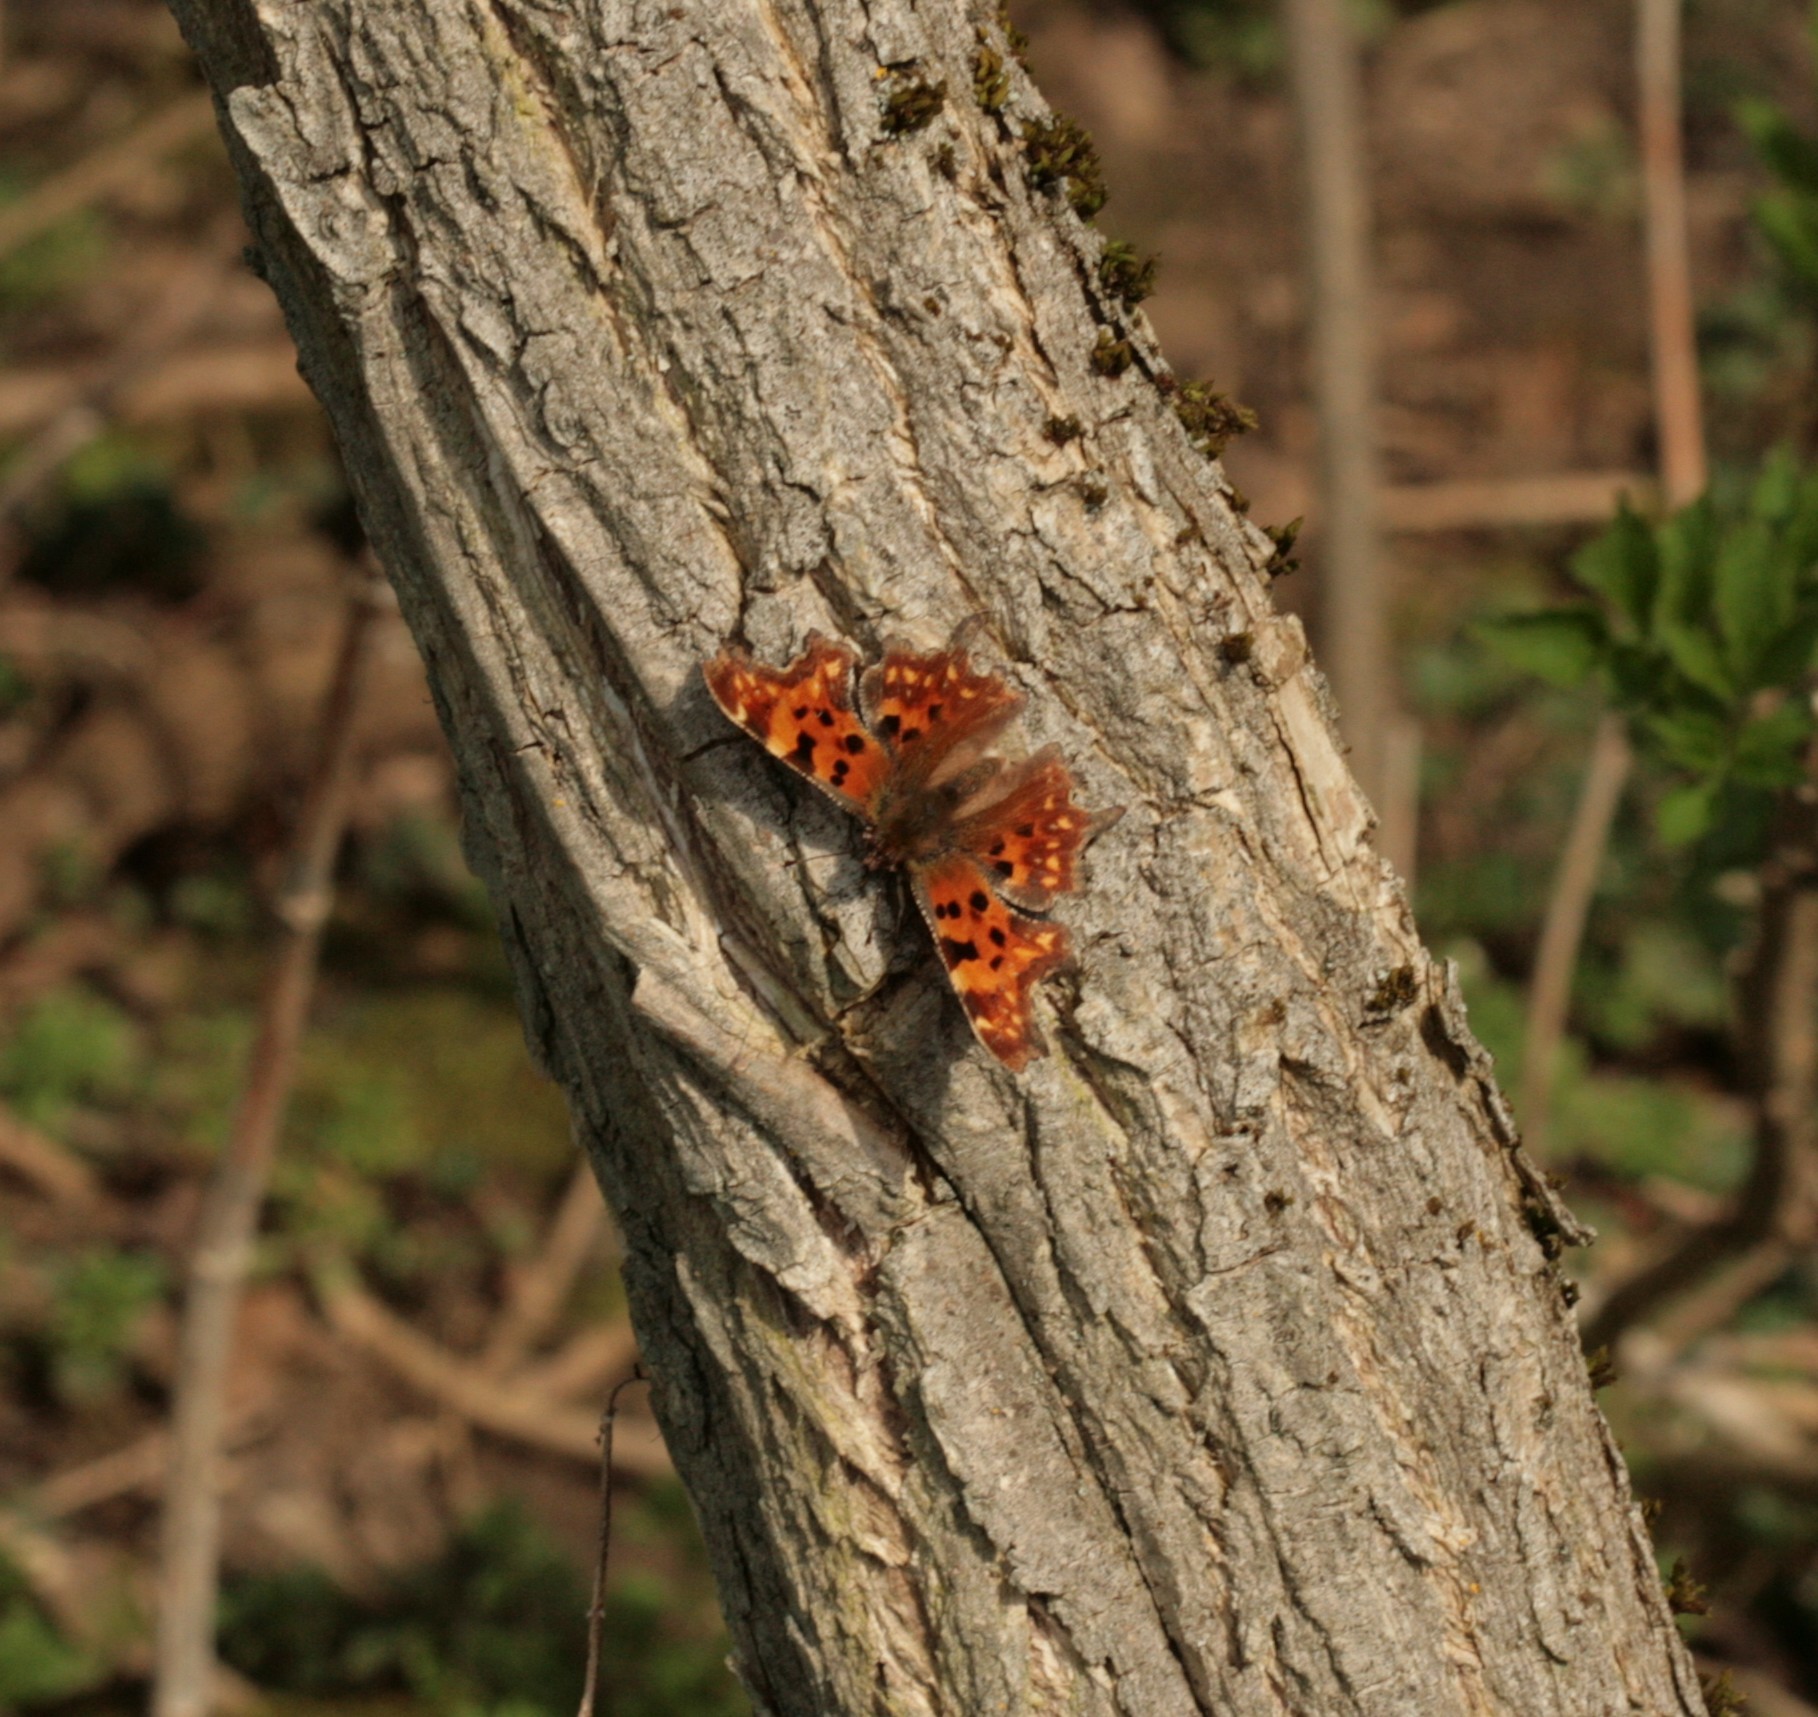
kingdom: Animalia
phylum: Arthropoda
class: Insecta
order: Lepidoptera
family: Nymphalidae
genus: Polygonia
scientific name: Polygonia c-album
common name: Comma
